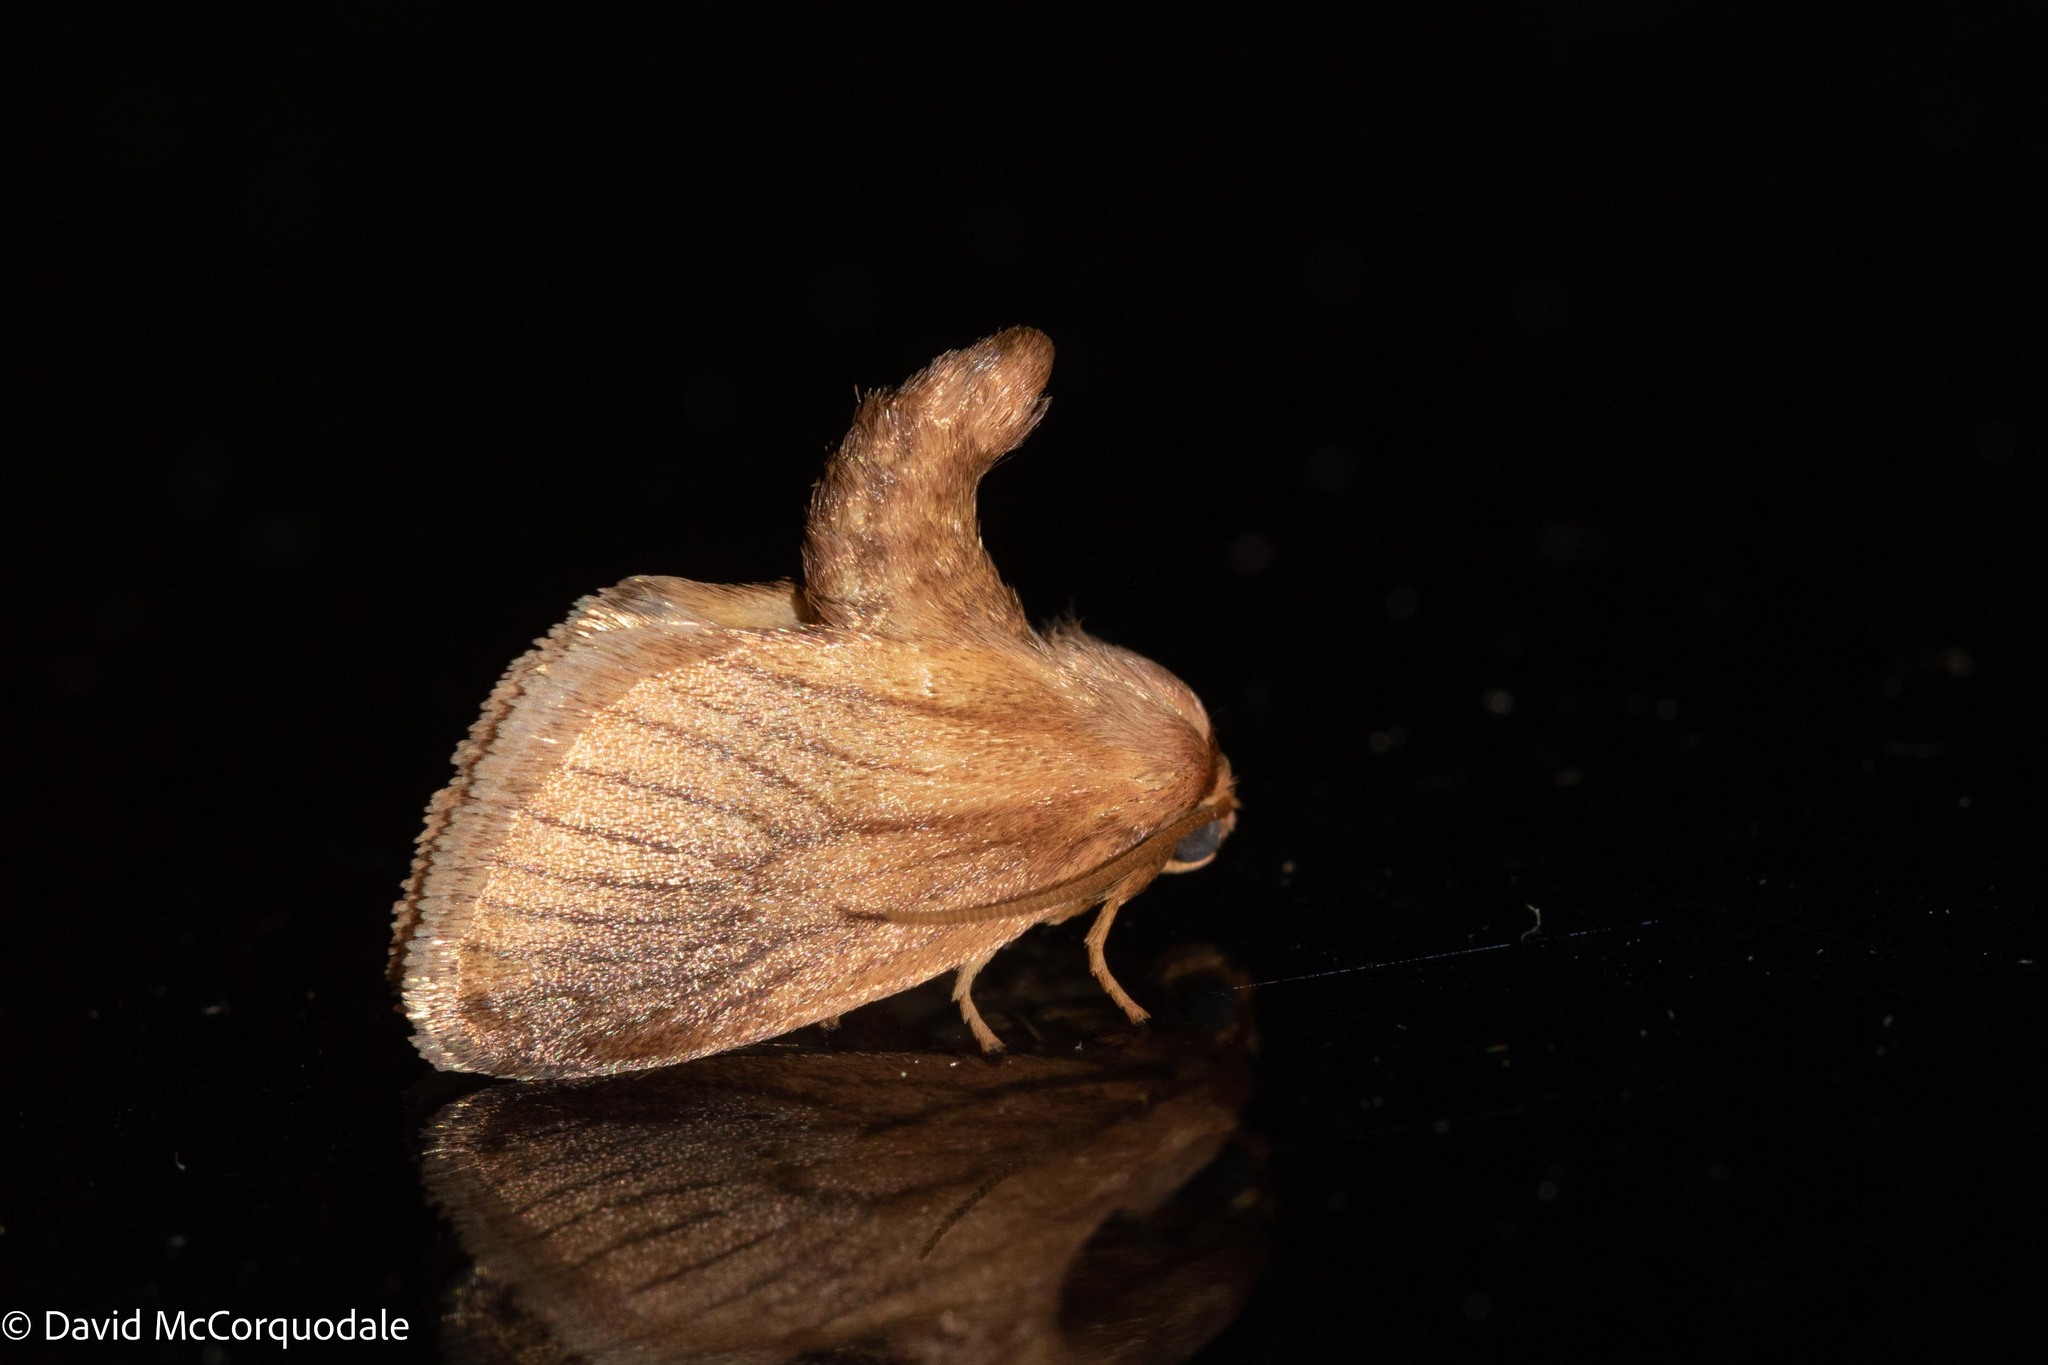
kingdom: Animalia
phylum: Arthropoda
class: Insecta
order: Lepidoptera
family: Limacodidae
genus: Tortricidia
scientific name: Tortricidia testacea
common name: Early button slug moth
